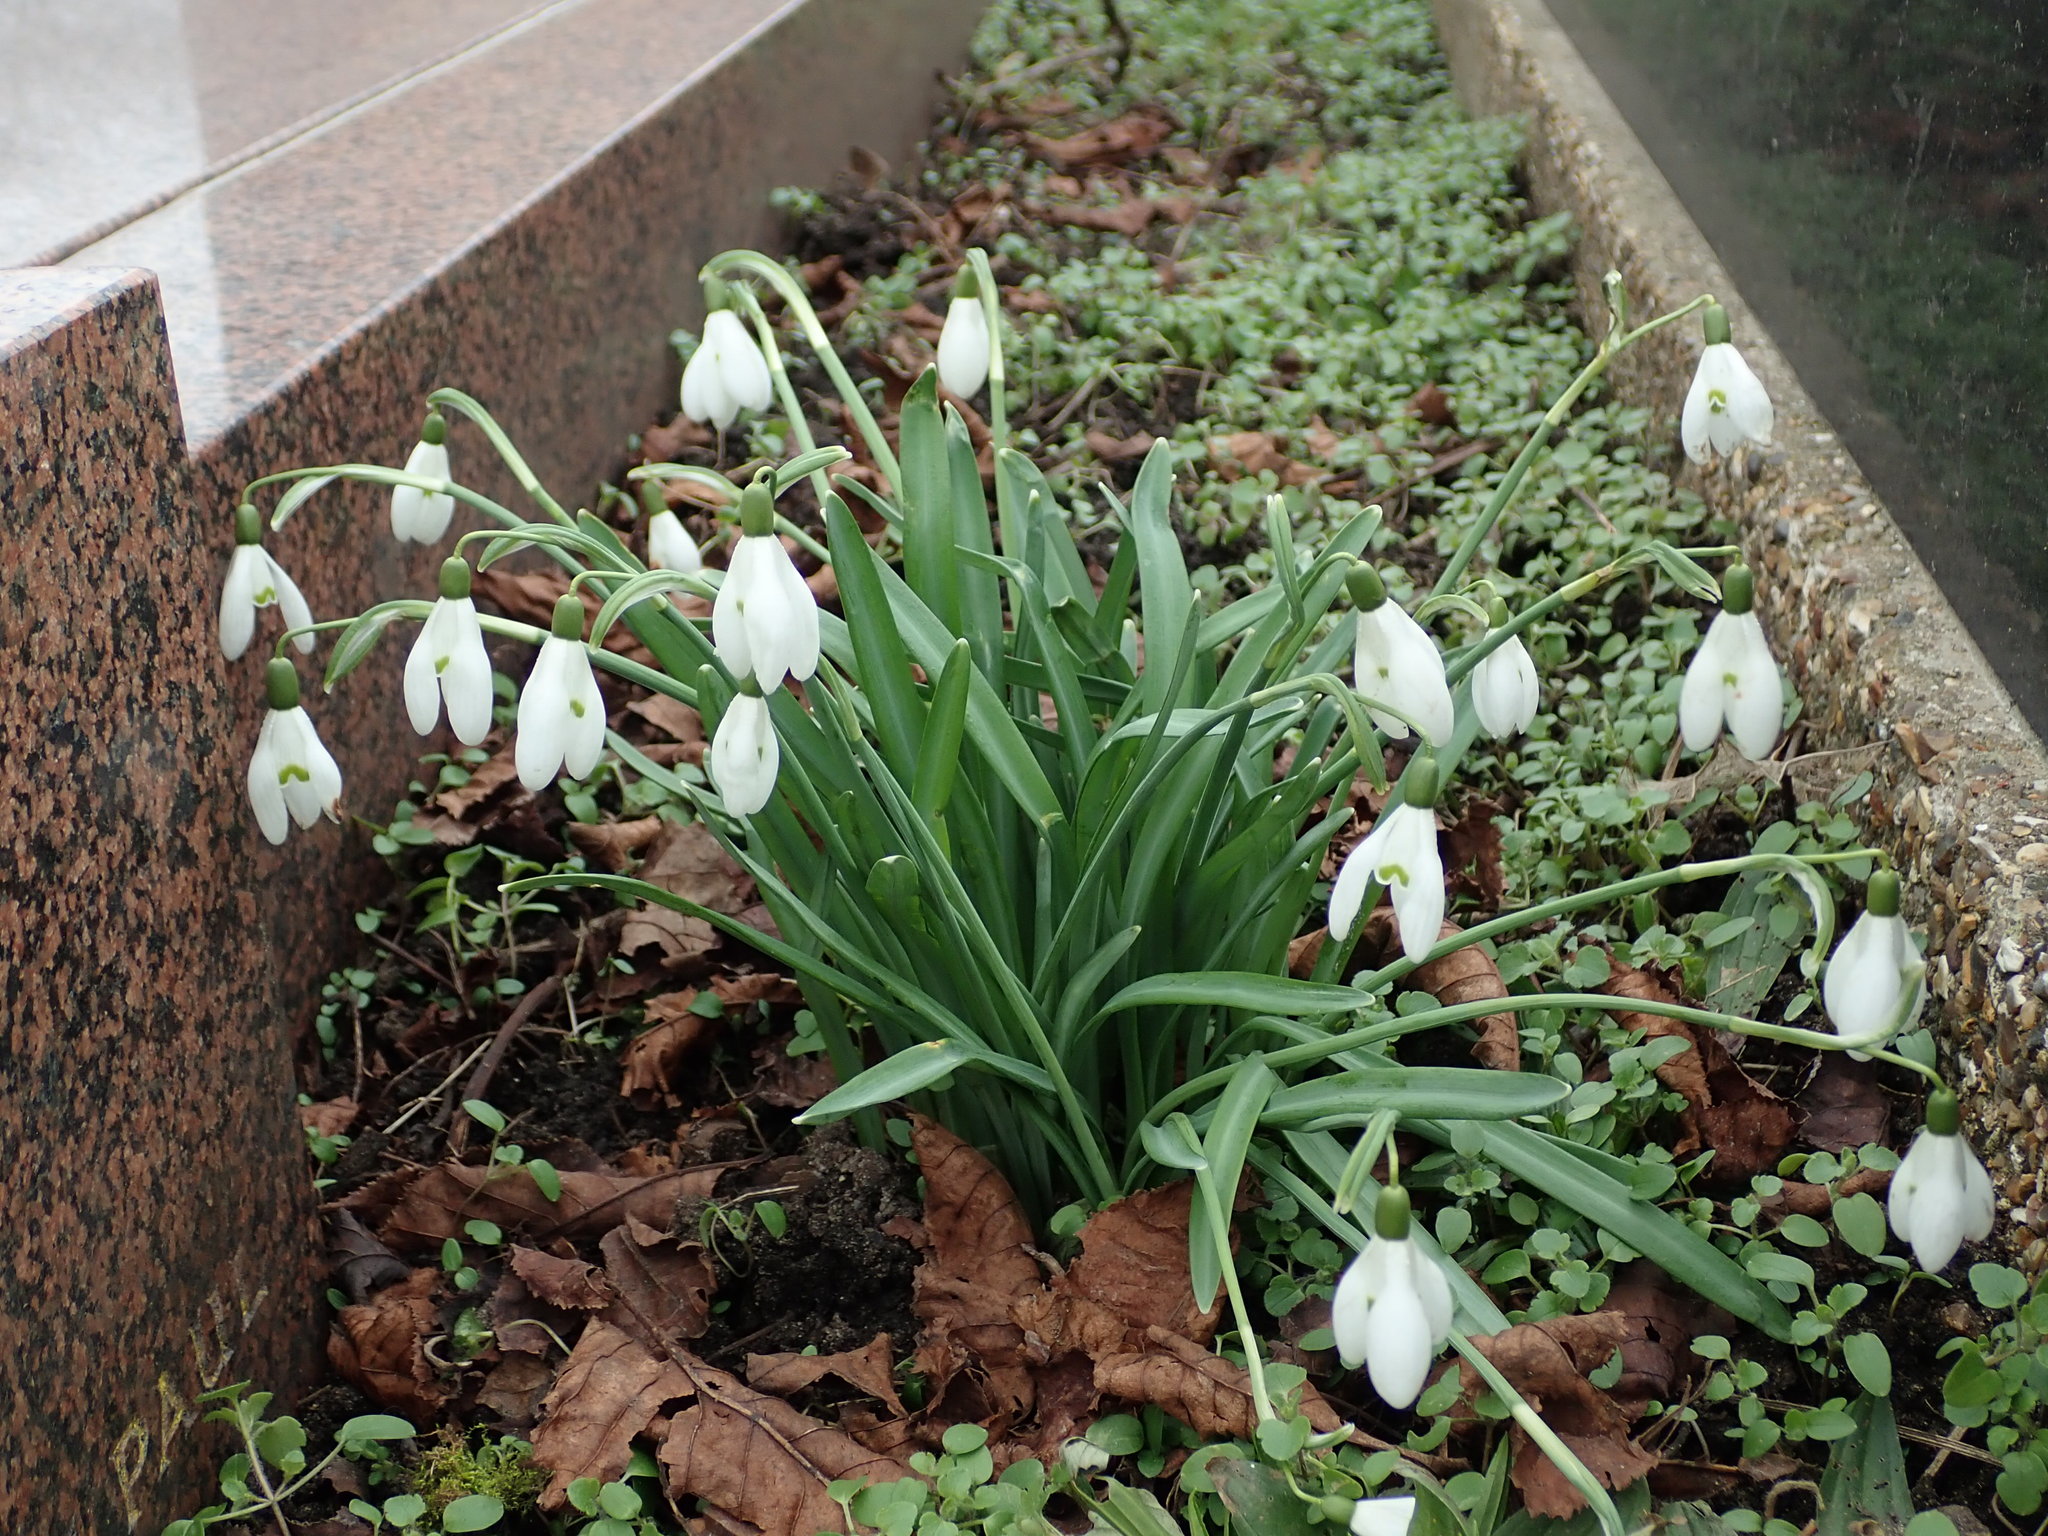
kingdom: Plantae
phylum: Tracheophyta
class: Liliopsida
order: Asparagales
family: Amaryllidaceae
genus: Galanthus
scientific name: Galanthus nivalis
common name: Snowdrop
